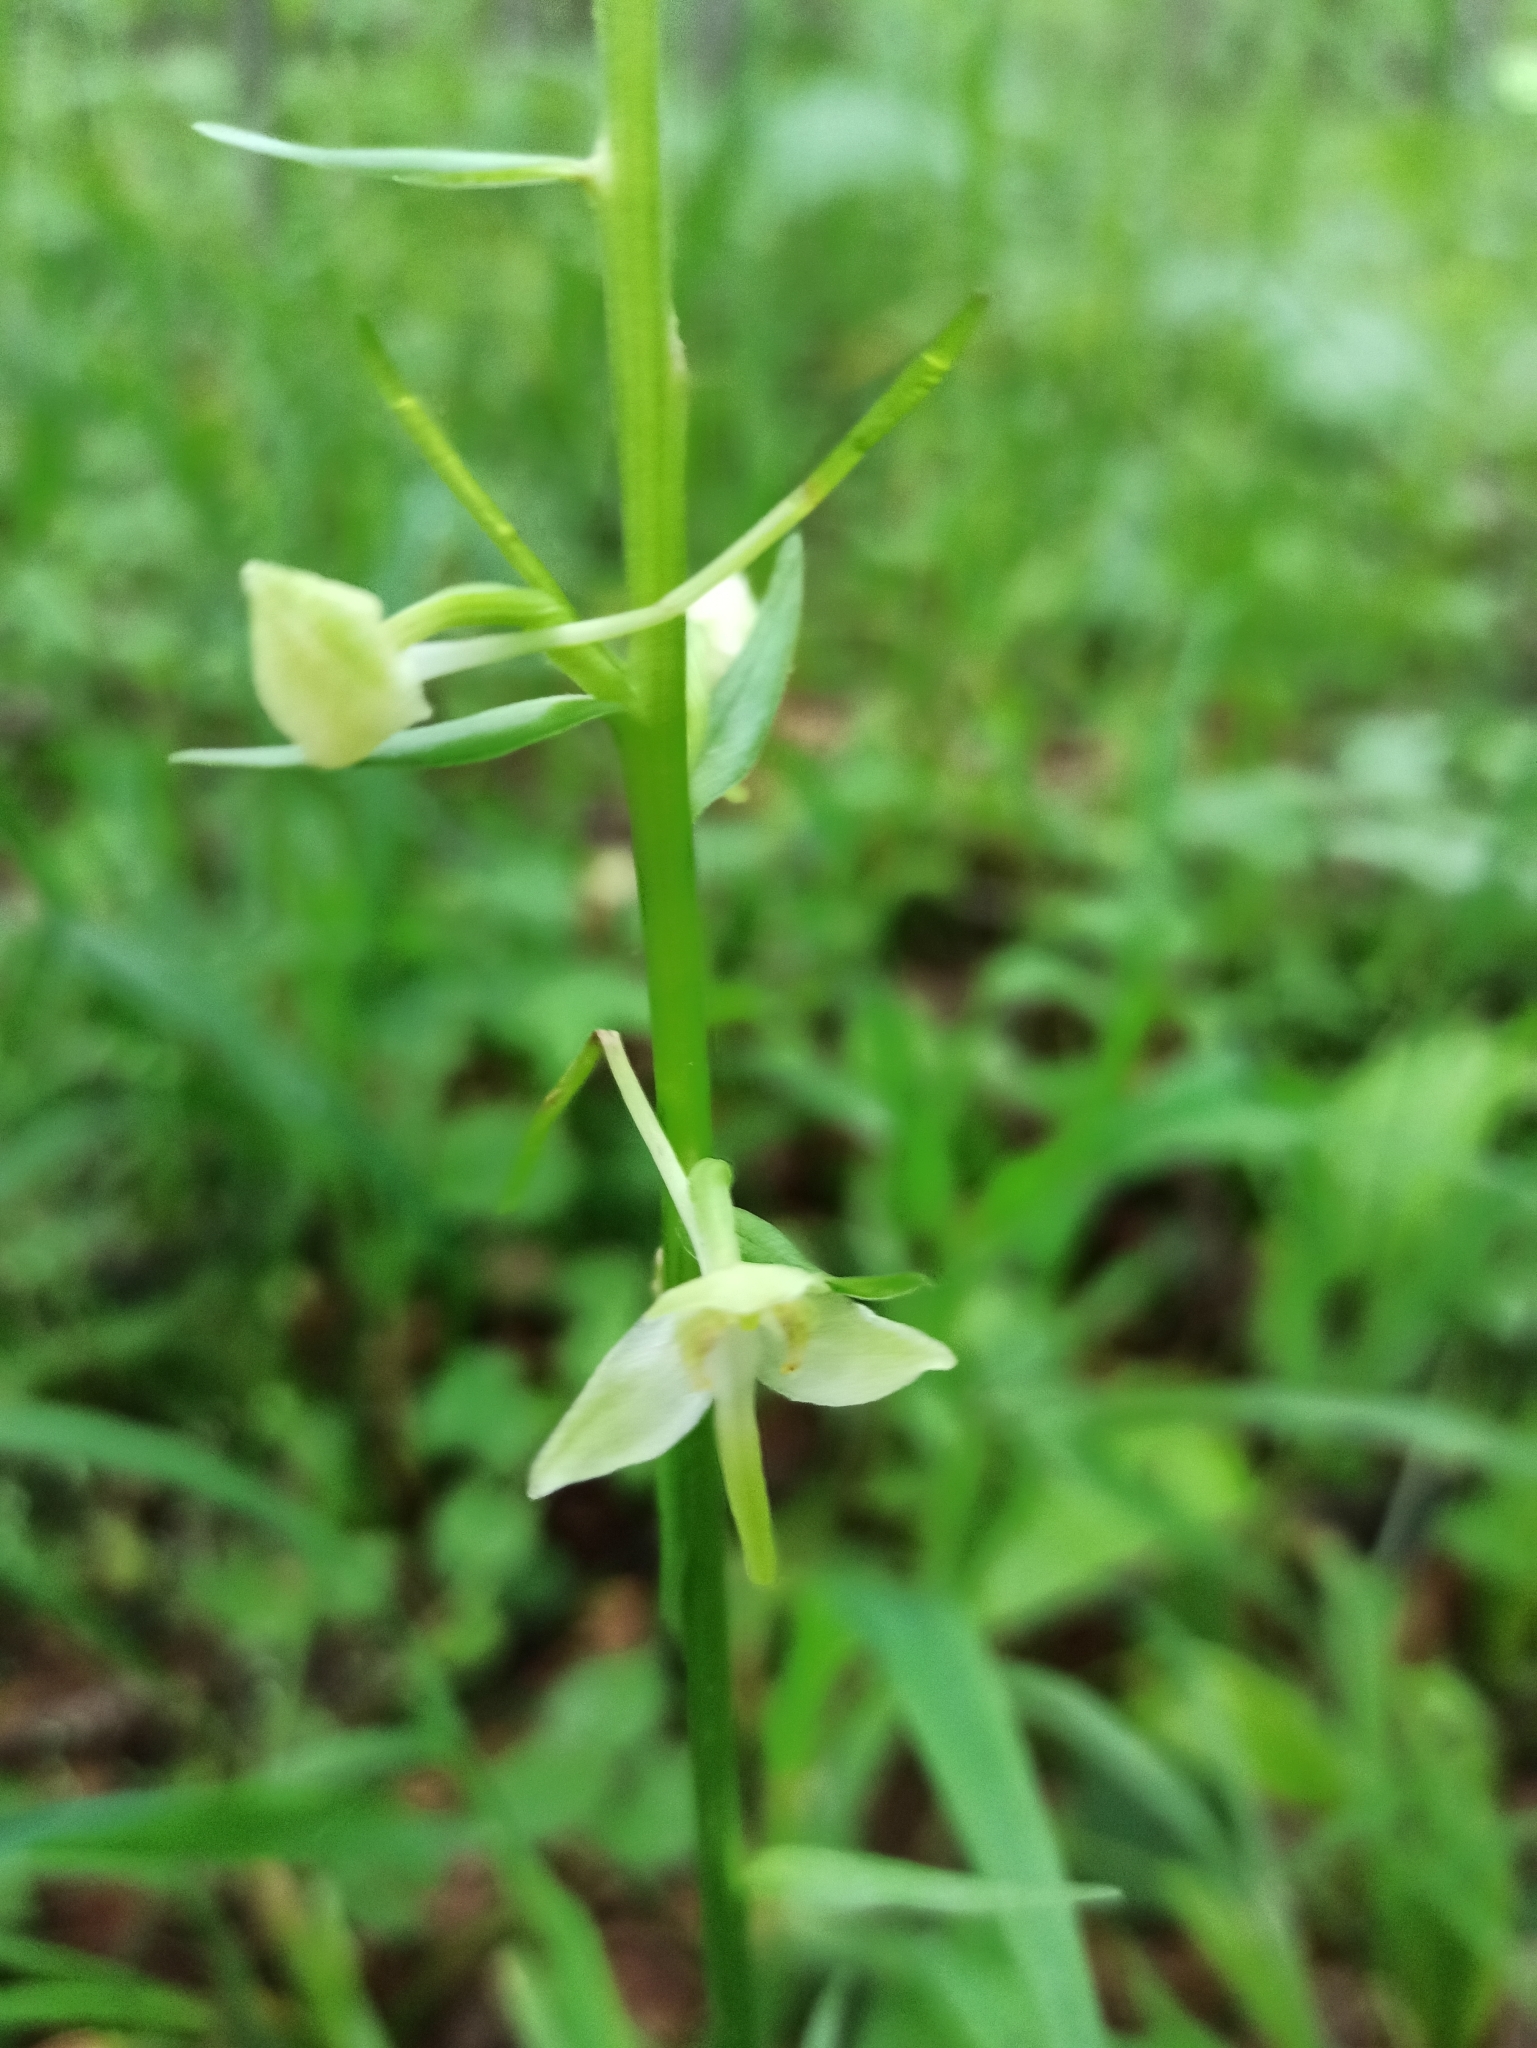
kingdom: Plantae
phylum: Tracheophyta
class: Liliopsida
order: Asparagales
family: Orchidaceae
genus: Platanthera
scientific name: Platanthera chlorantha
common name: Greater butterfly-orchid
